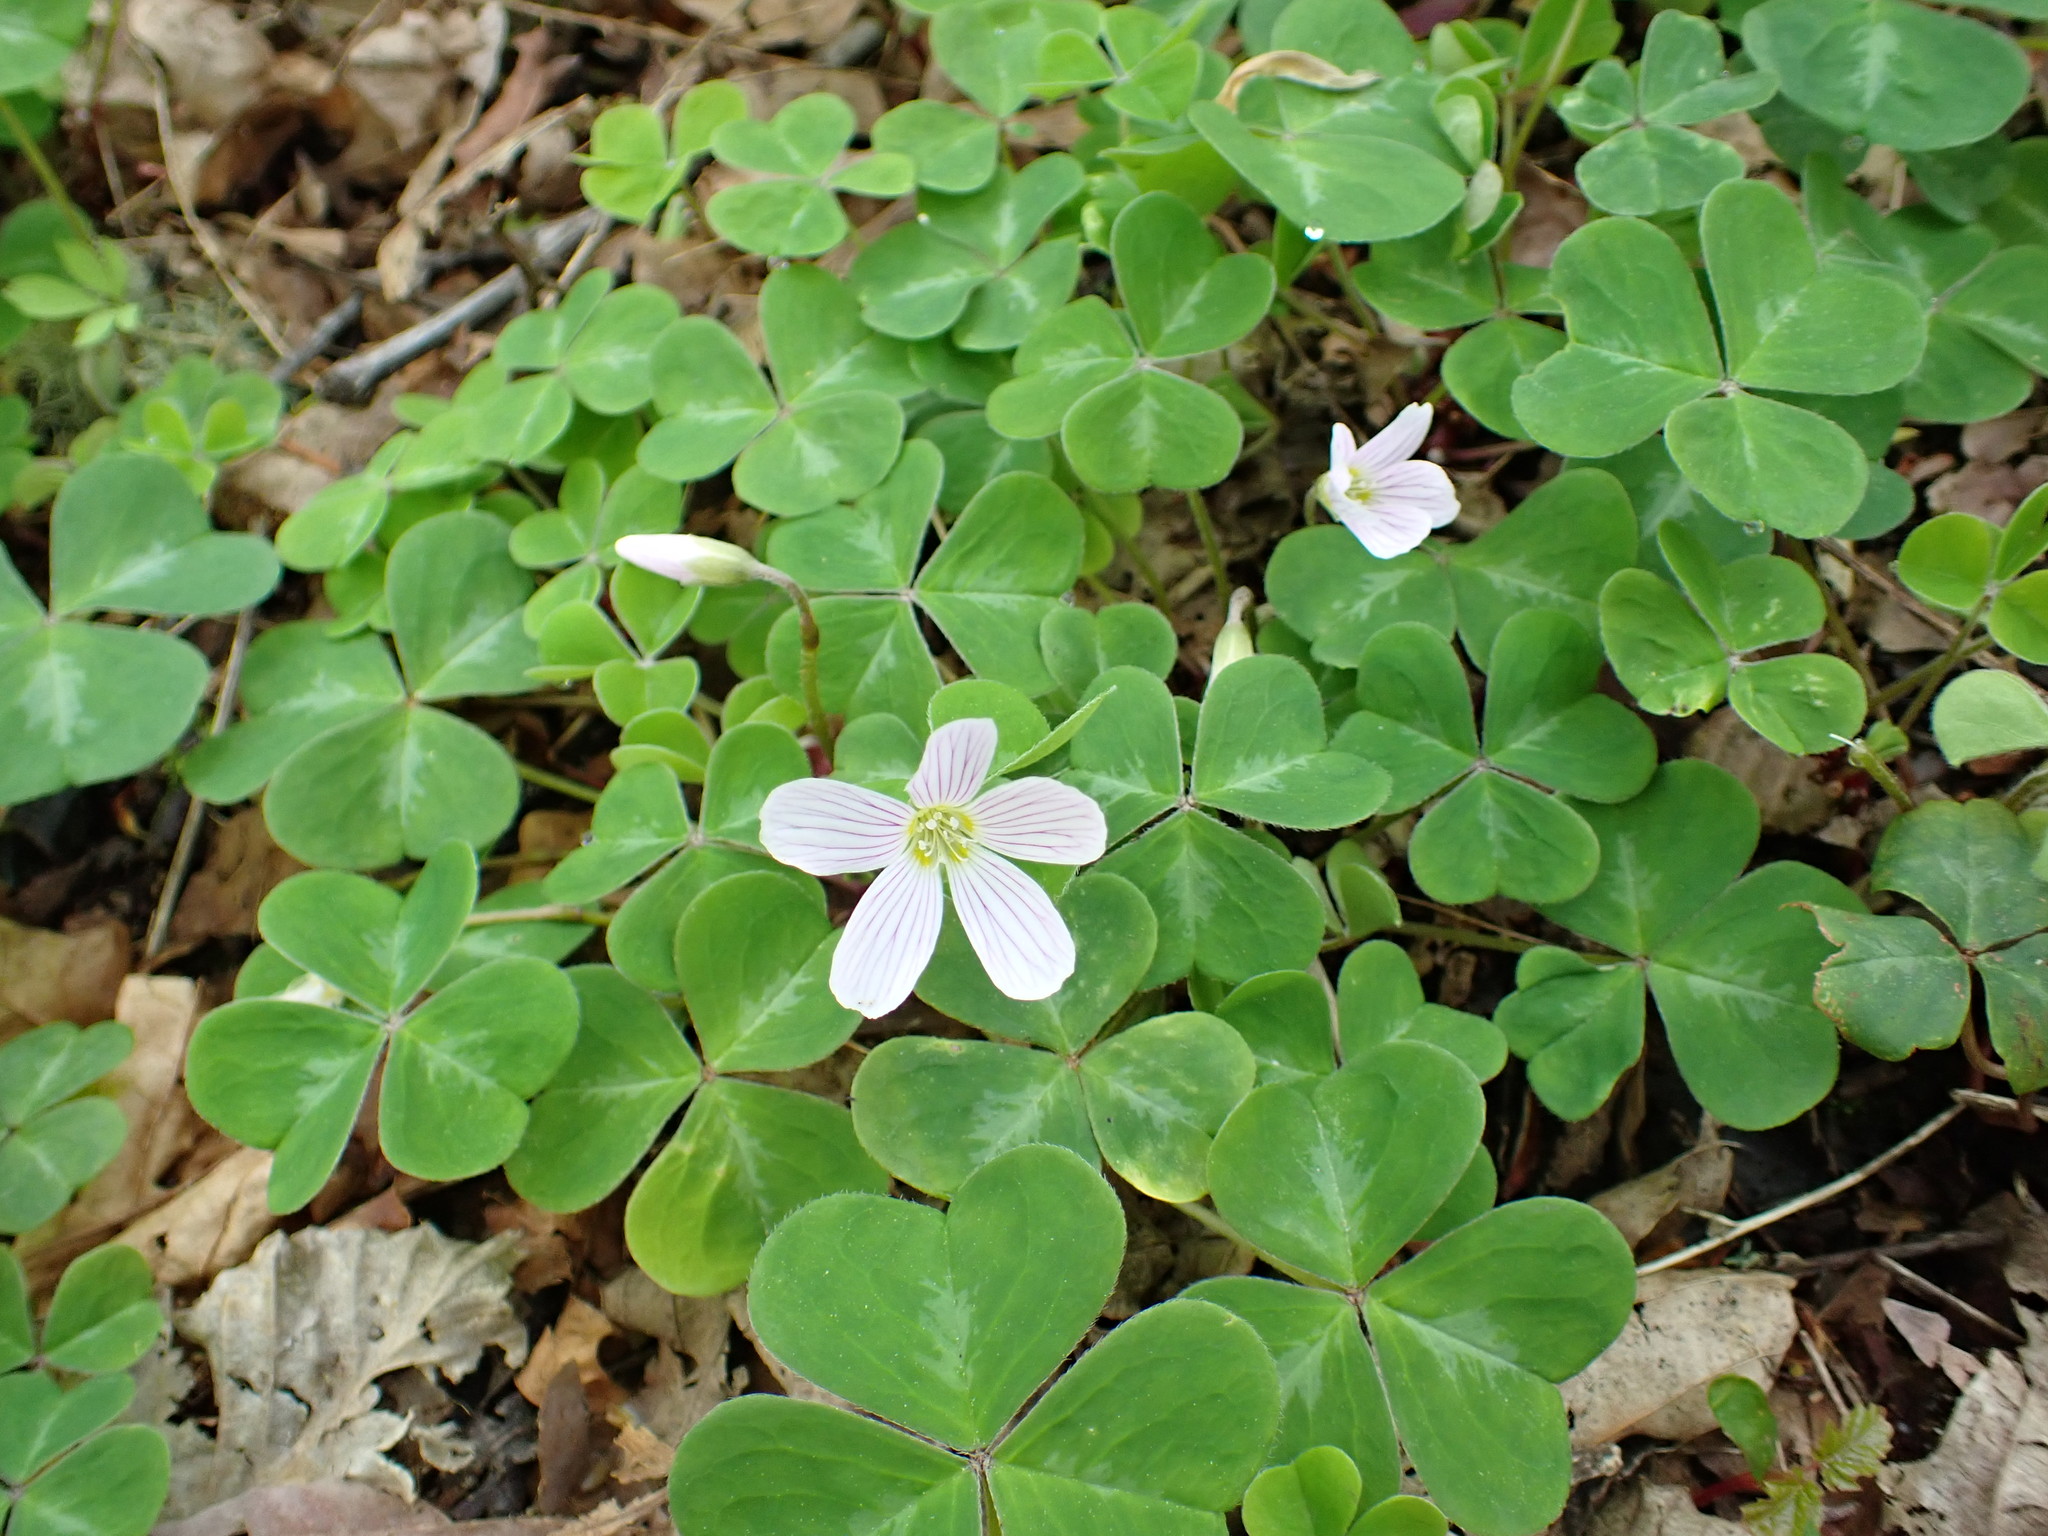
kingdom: Plantae
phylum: Tracheophyta
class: Magnoliopsida
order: Oxalidales
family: Oxalidaceae
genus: Oxalis
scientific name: Oxalis oregana
